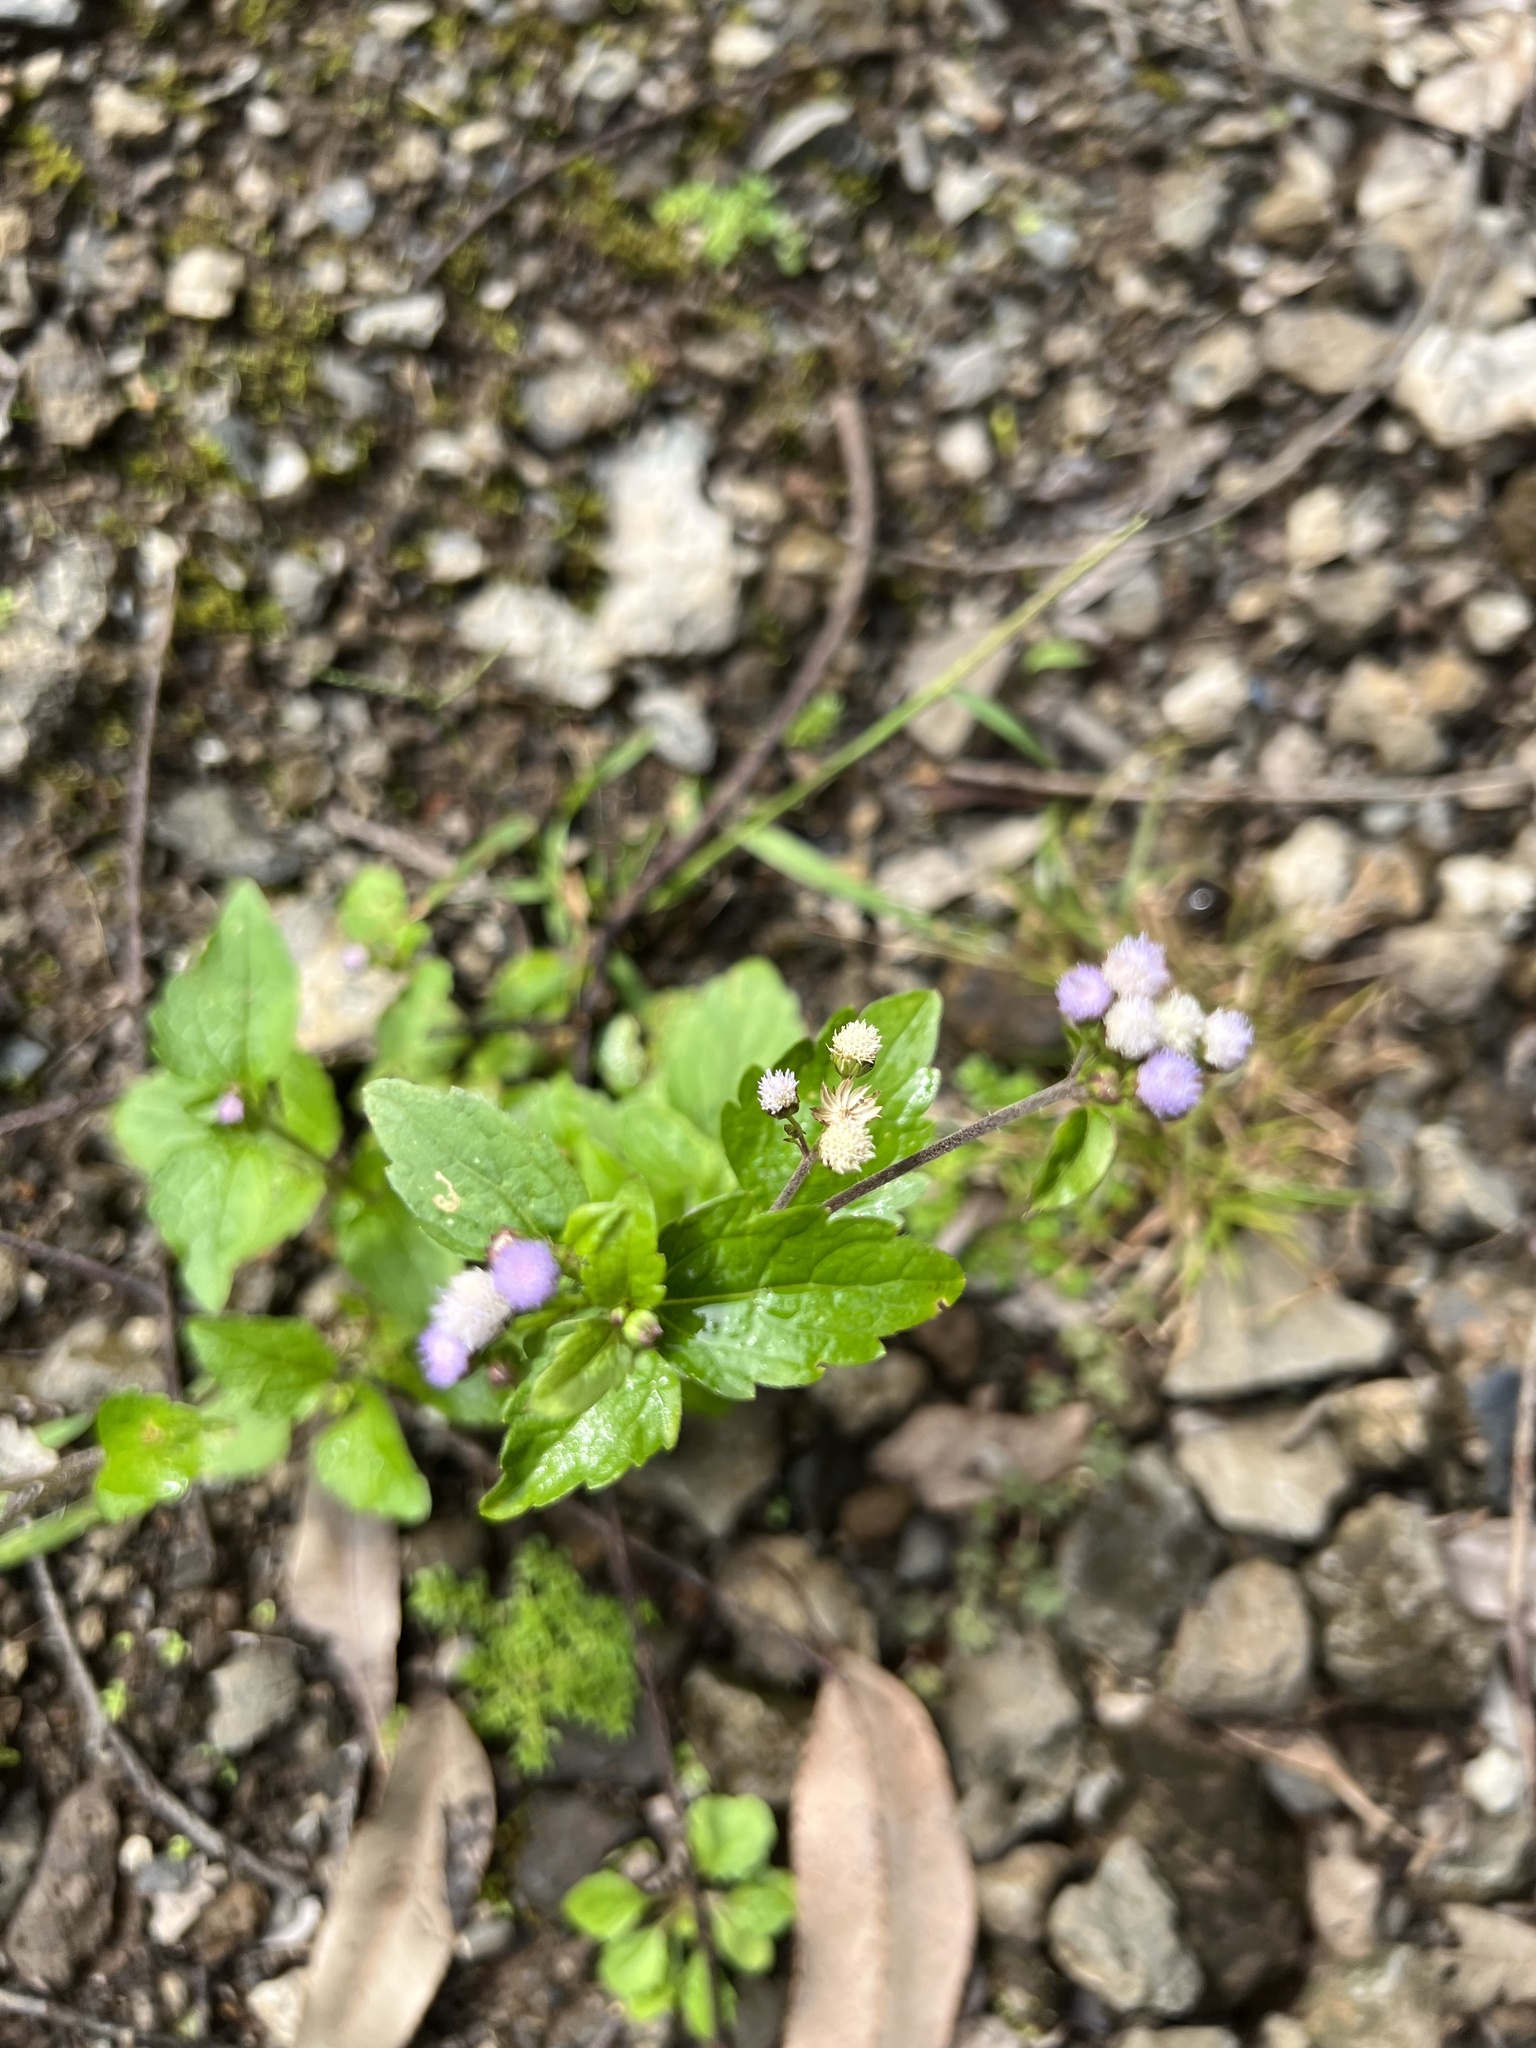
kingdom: Plantae
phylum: Tracheophyta
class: Magnoliopsida
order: Asterales
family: Asteraceae
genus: Ageratum
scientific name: Ageratum conyzoides
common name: Tropical whiteweed
